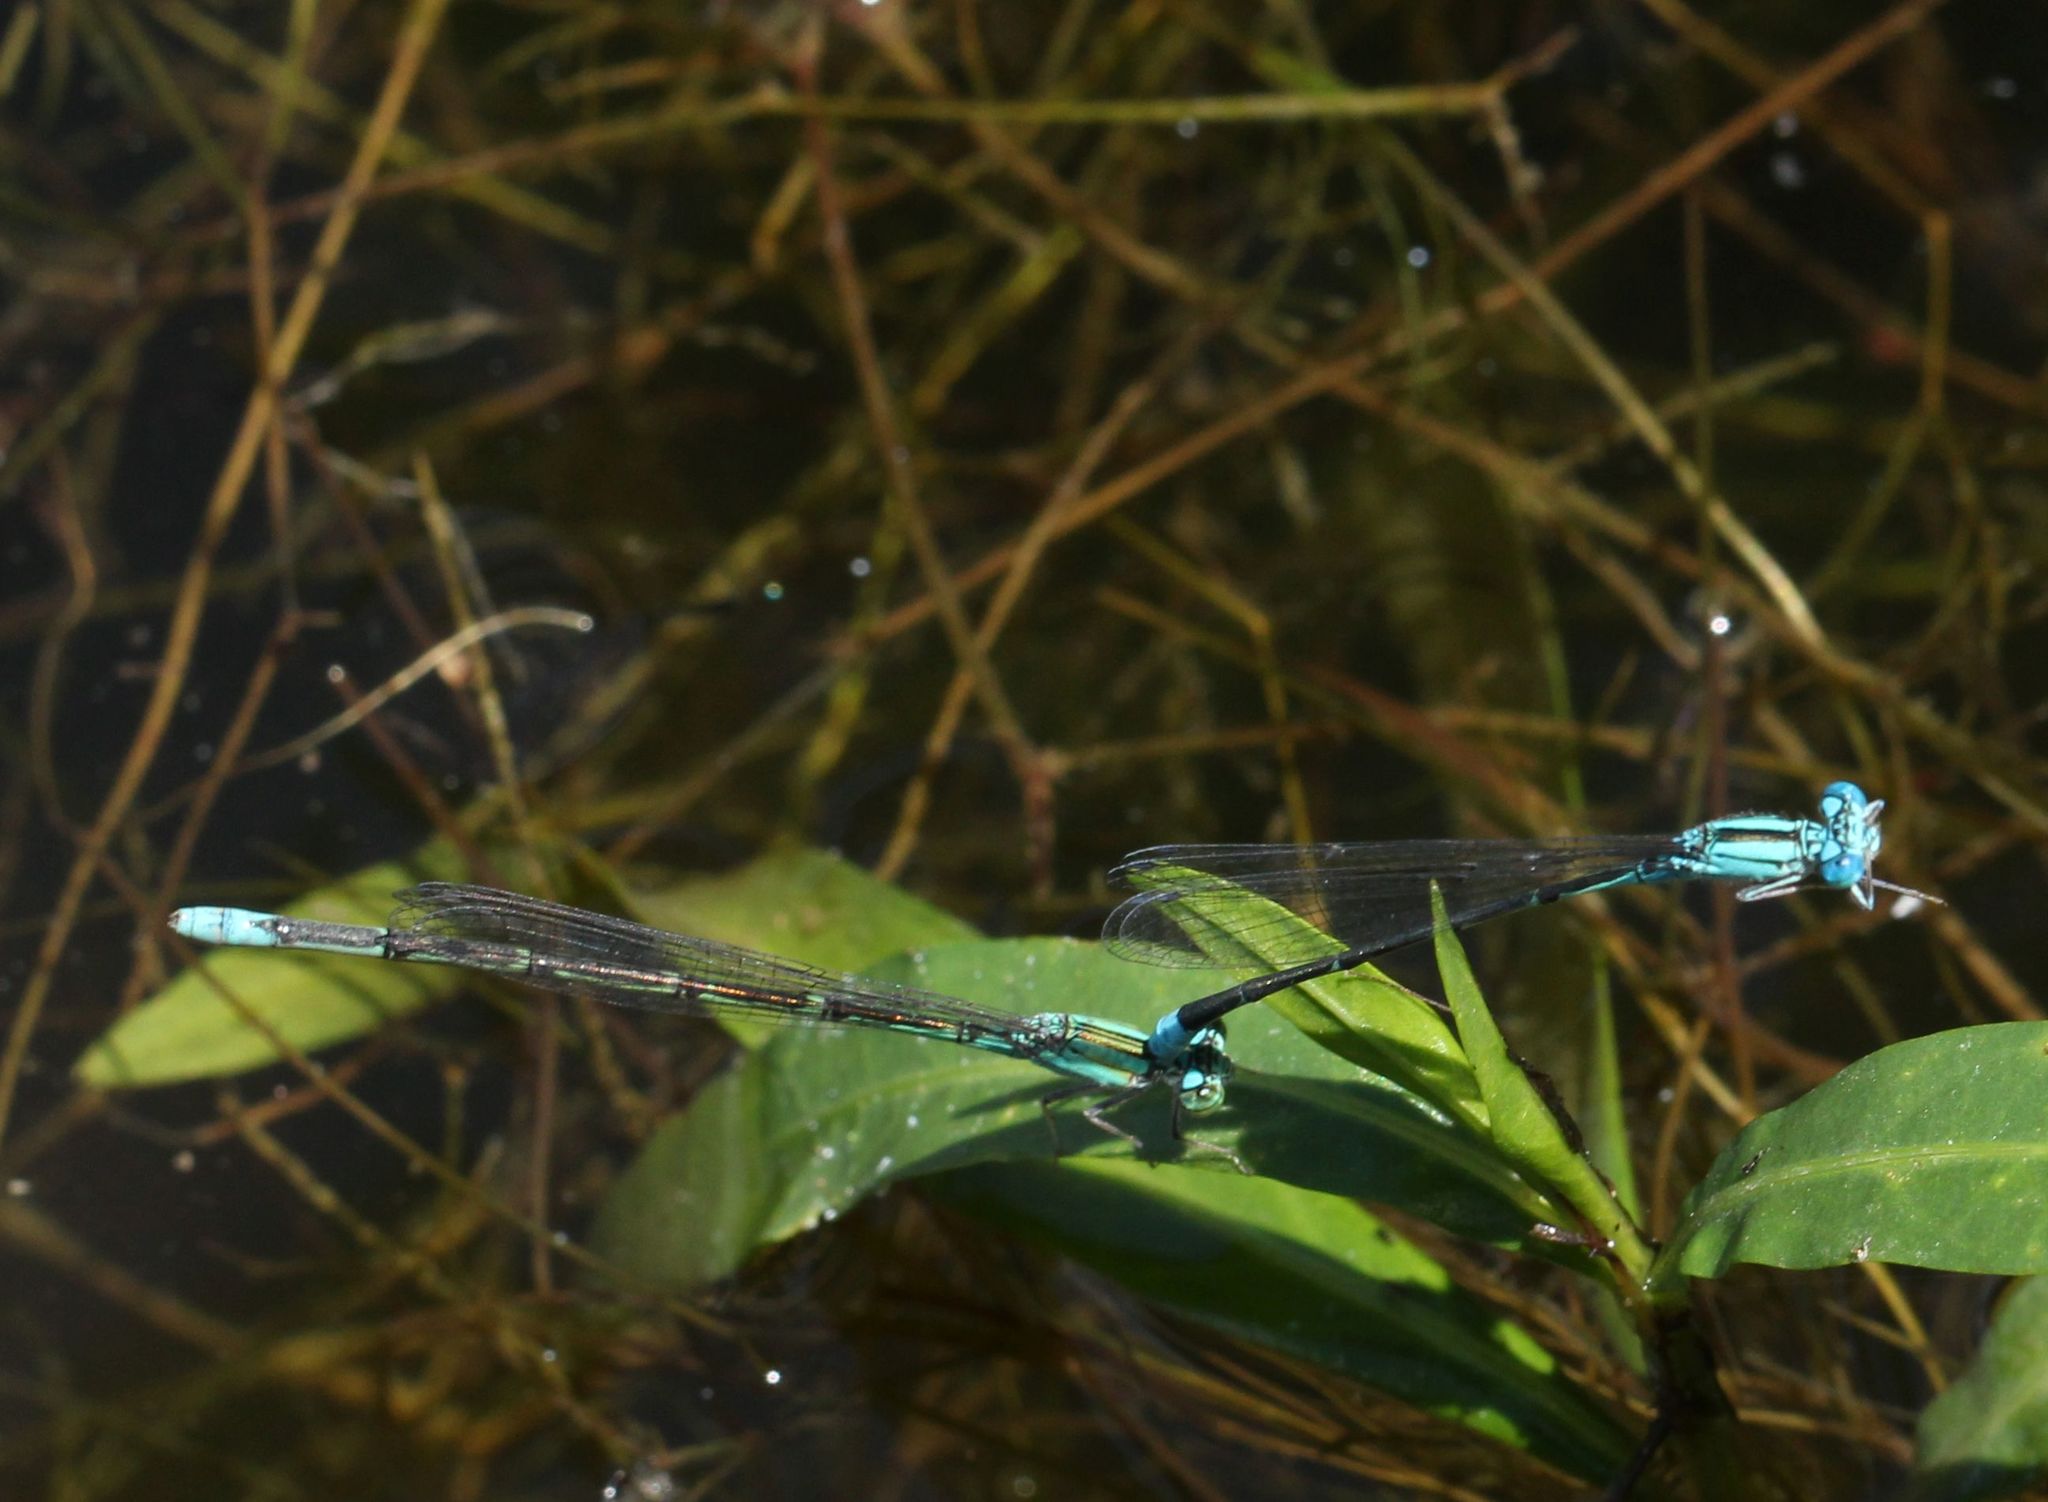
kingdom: Animalia
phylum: Arthropoda
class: Insecta
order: Odonata
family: Coenagrionidae
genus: Enallagma
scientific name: Enallagma traviatum
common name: Slender bluet
